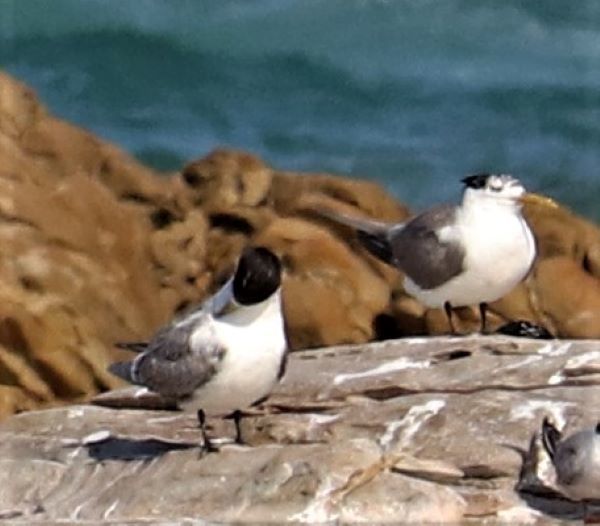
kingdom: Animalia
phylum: Chordata
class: Aves
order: Charadriiformes
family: Laridae
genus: Thalasseus
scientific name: Thalasseus bergii
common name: Greater crested tern
